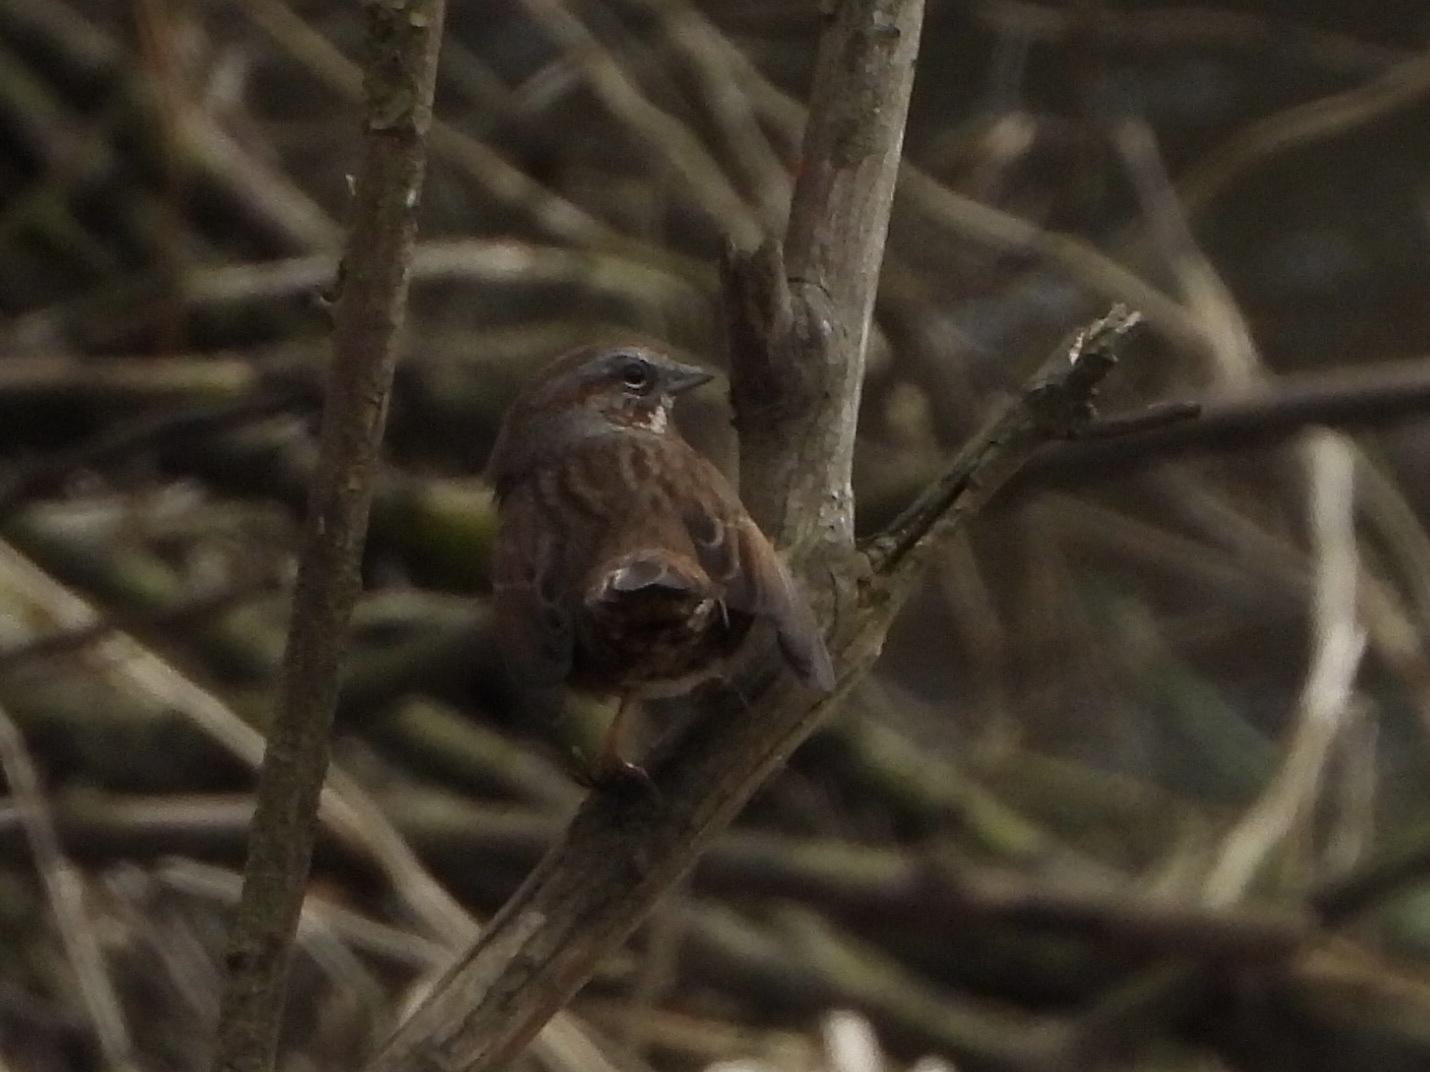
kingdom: Animalia
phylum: Chordata
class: Aves
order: Passeriformes
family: Passerellidae
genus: Melospiza
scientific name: Melospiza melodia
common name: Song sparrow
